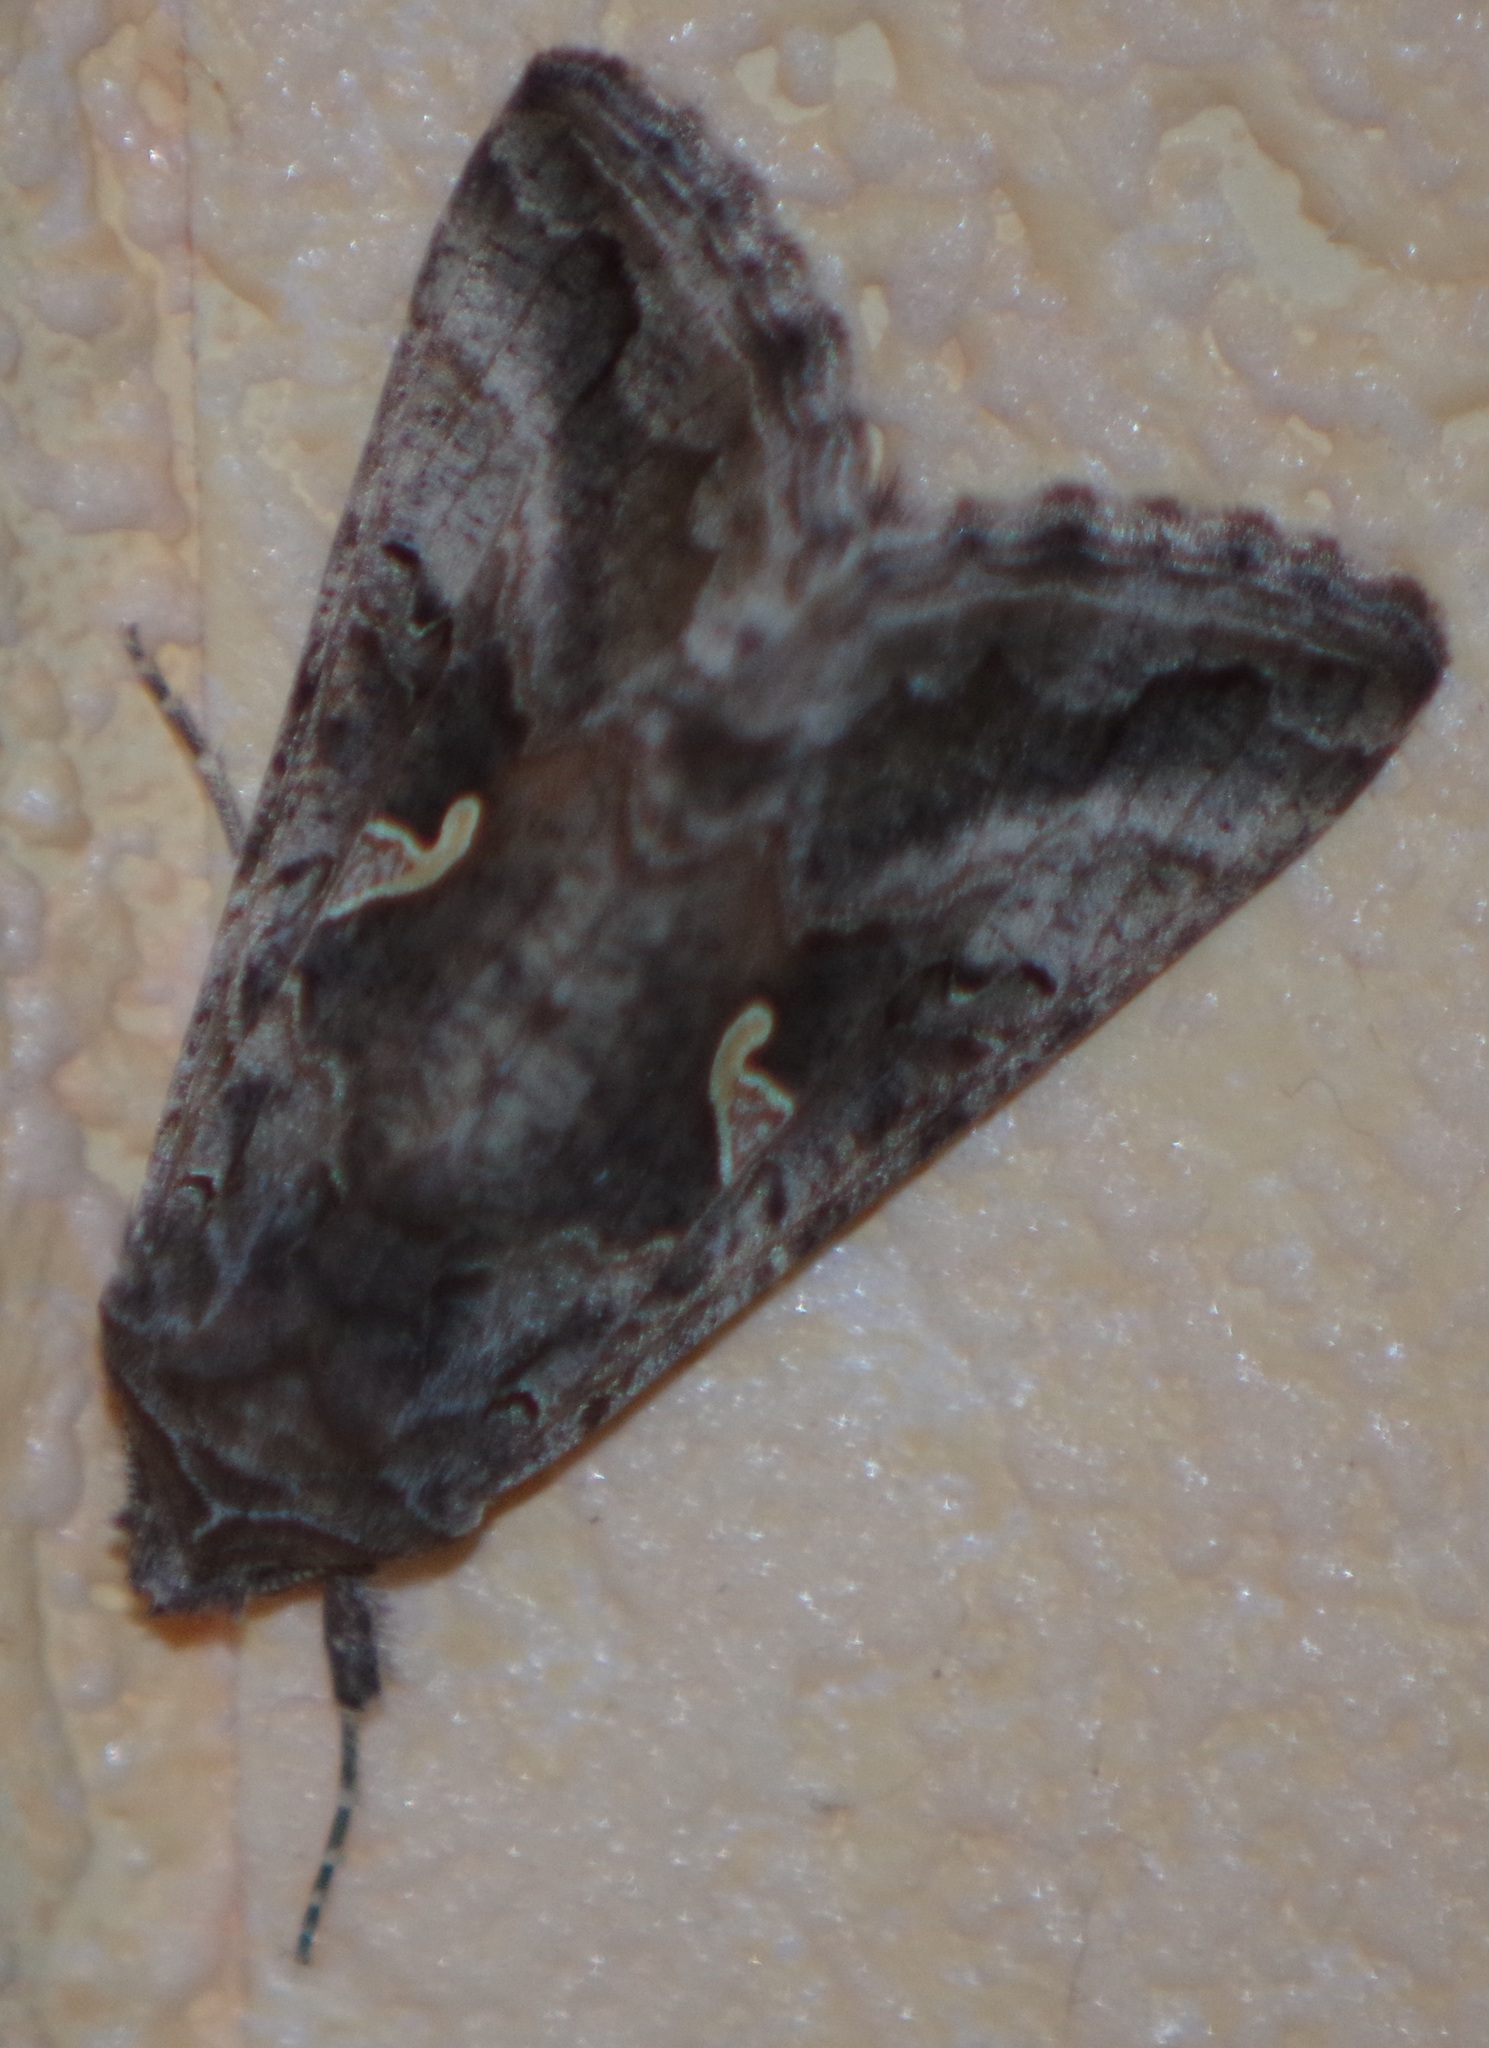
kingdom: Animalia
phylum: Arthropoda
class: Insecta
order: Lepidoptera
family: Noctuidae
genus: Autographa
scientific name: Autographa gamma
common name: Silver y
